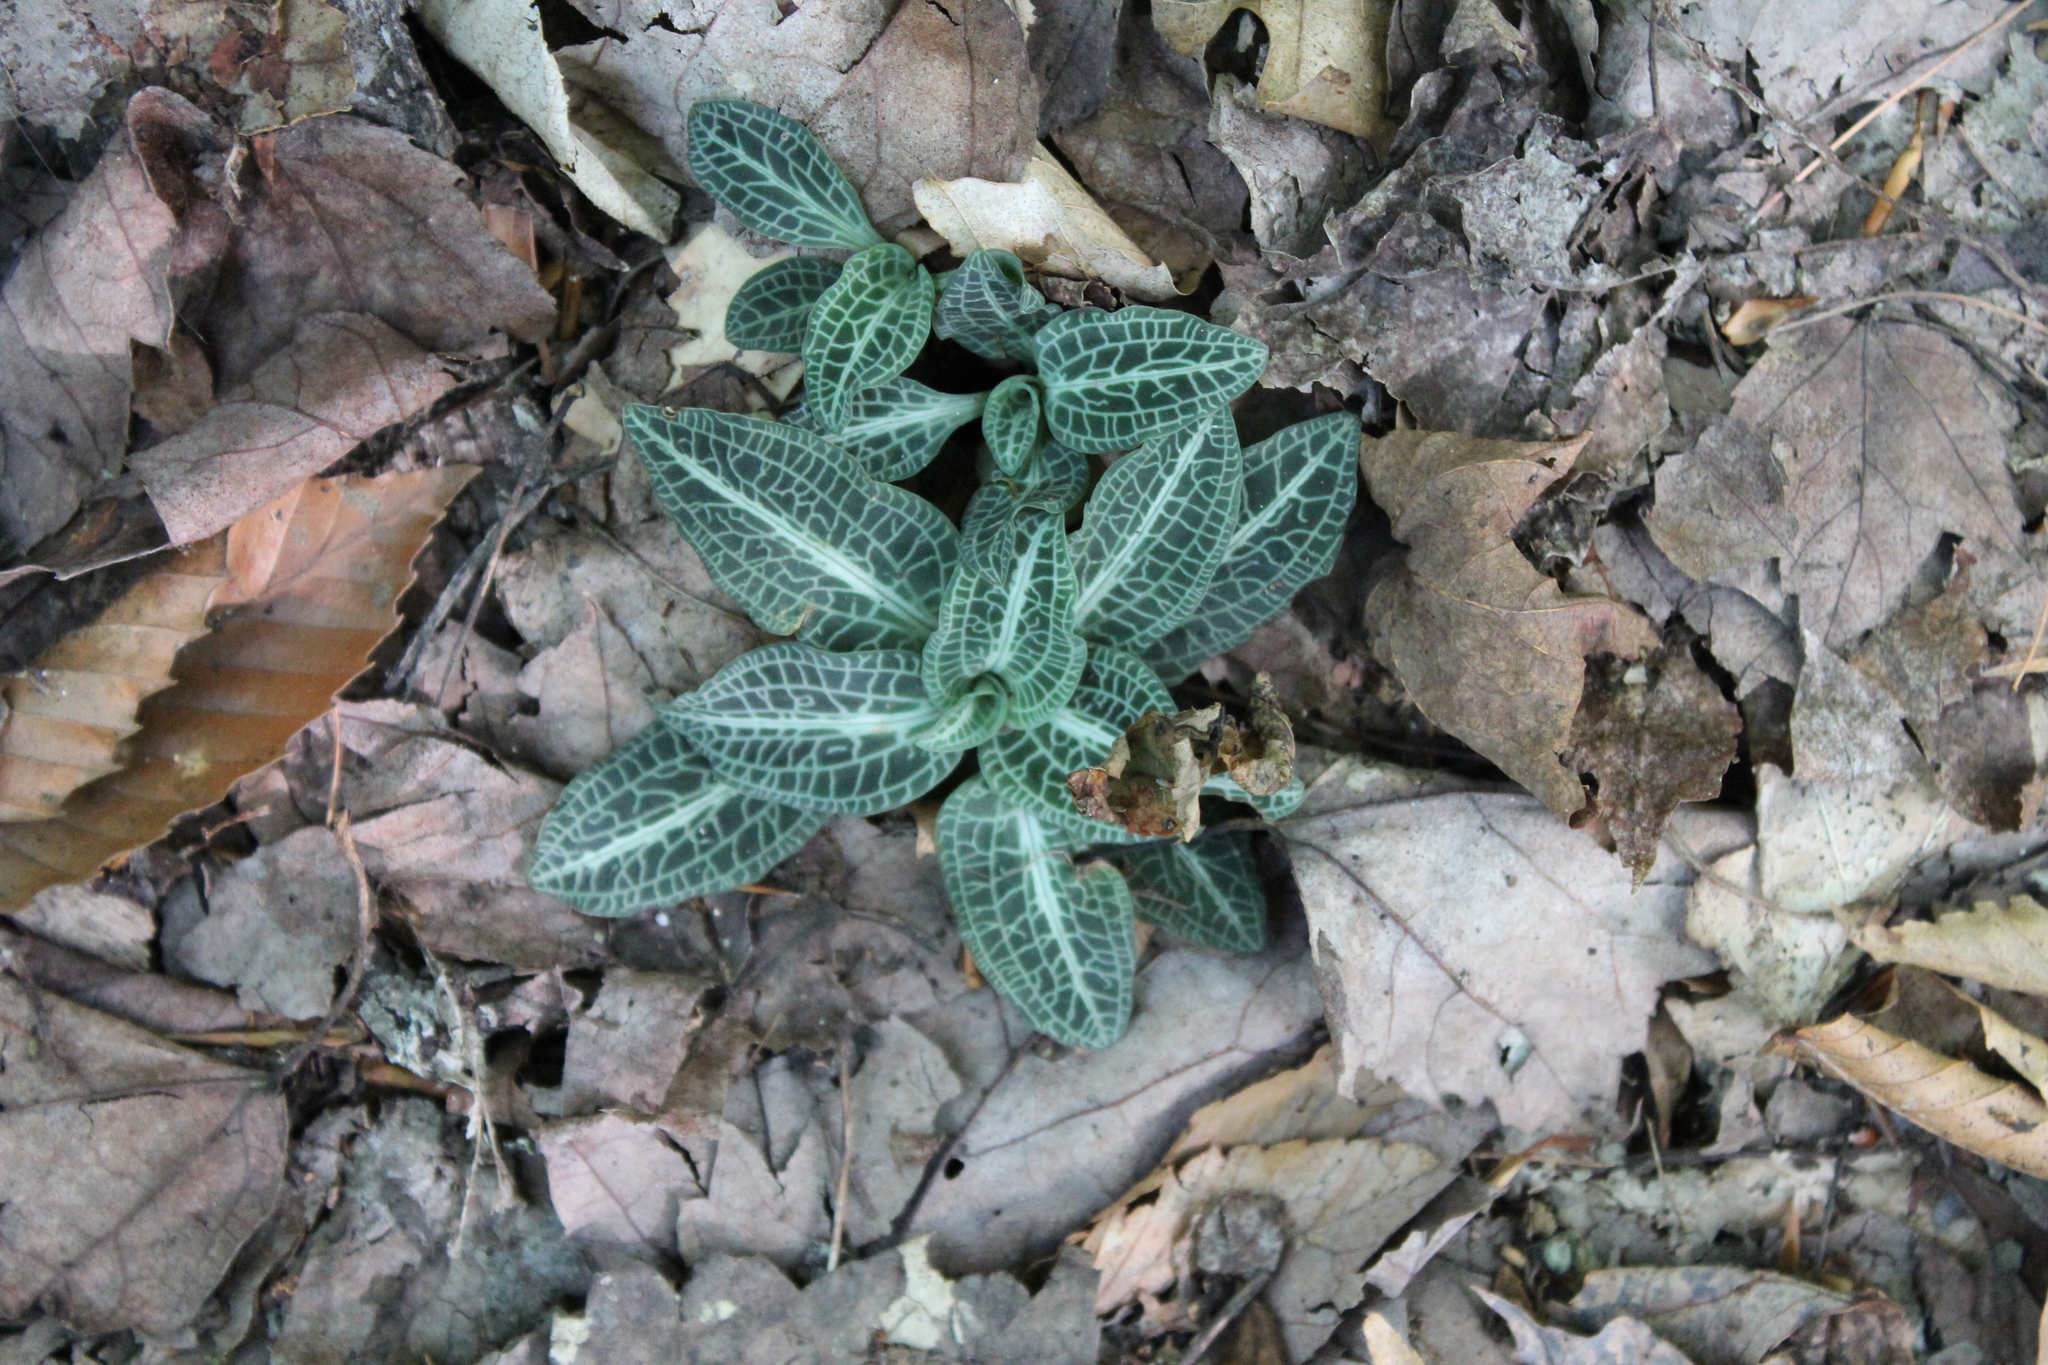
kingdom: Plantae
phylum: Tracheophyta
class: Liliopsida
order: Asparagales
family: Orchidaceae
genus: Goodyera
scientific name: Goodyera pubescens
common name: Downy rattlesnake-plantain
